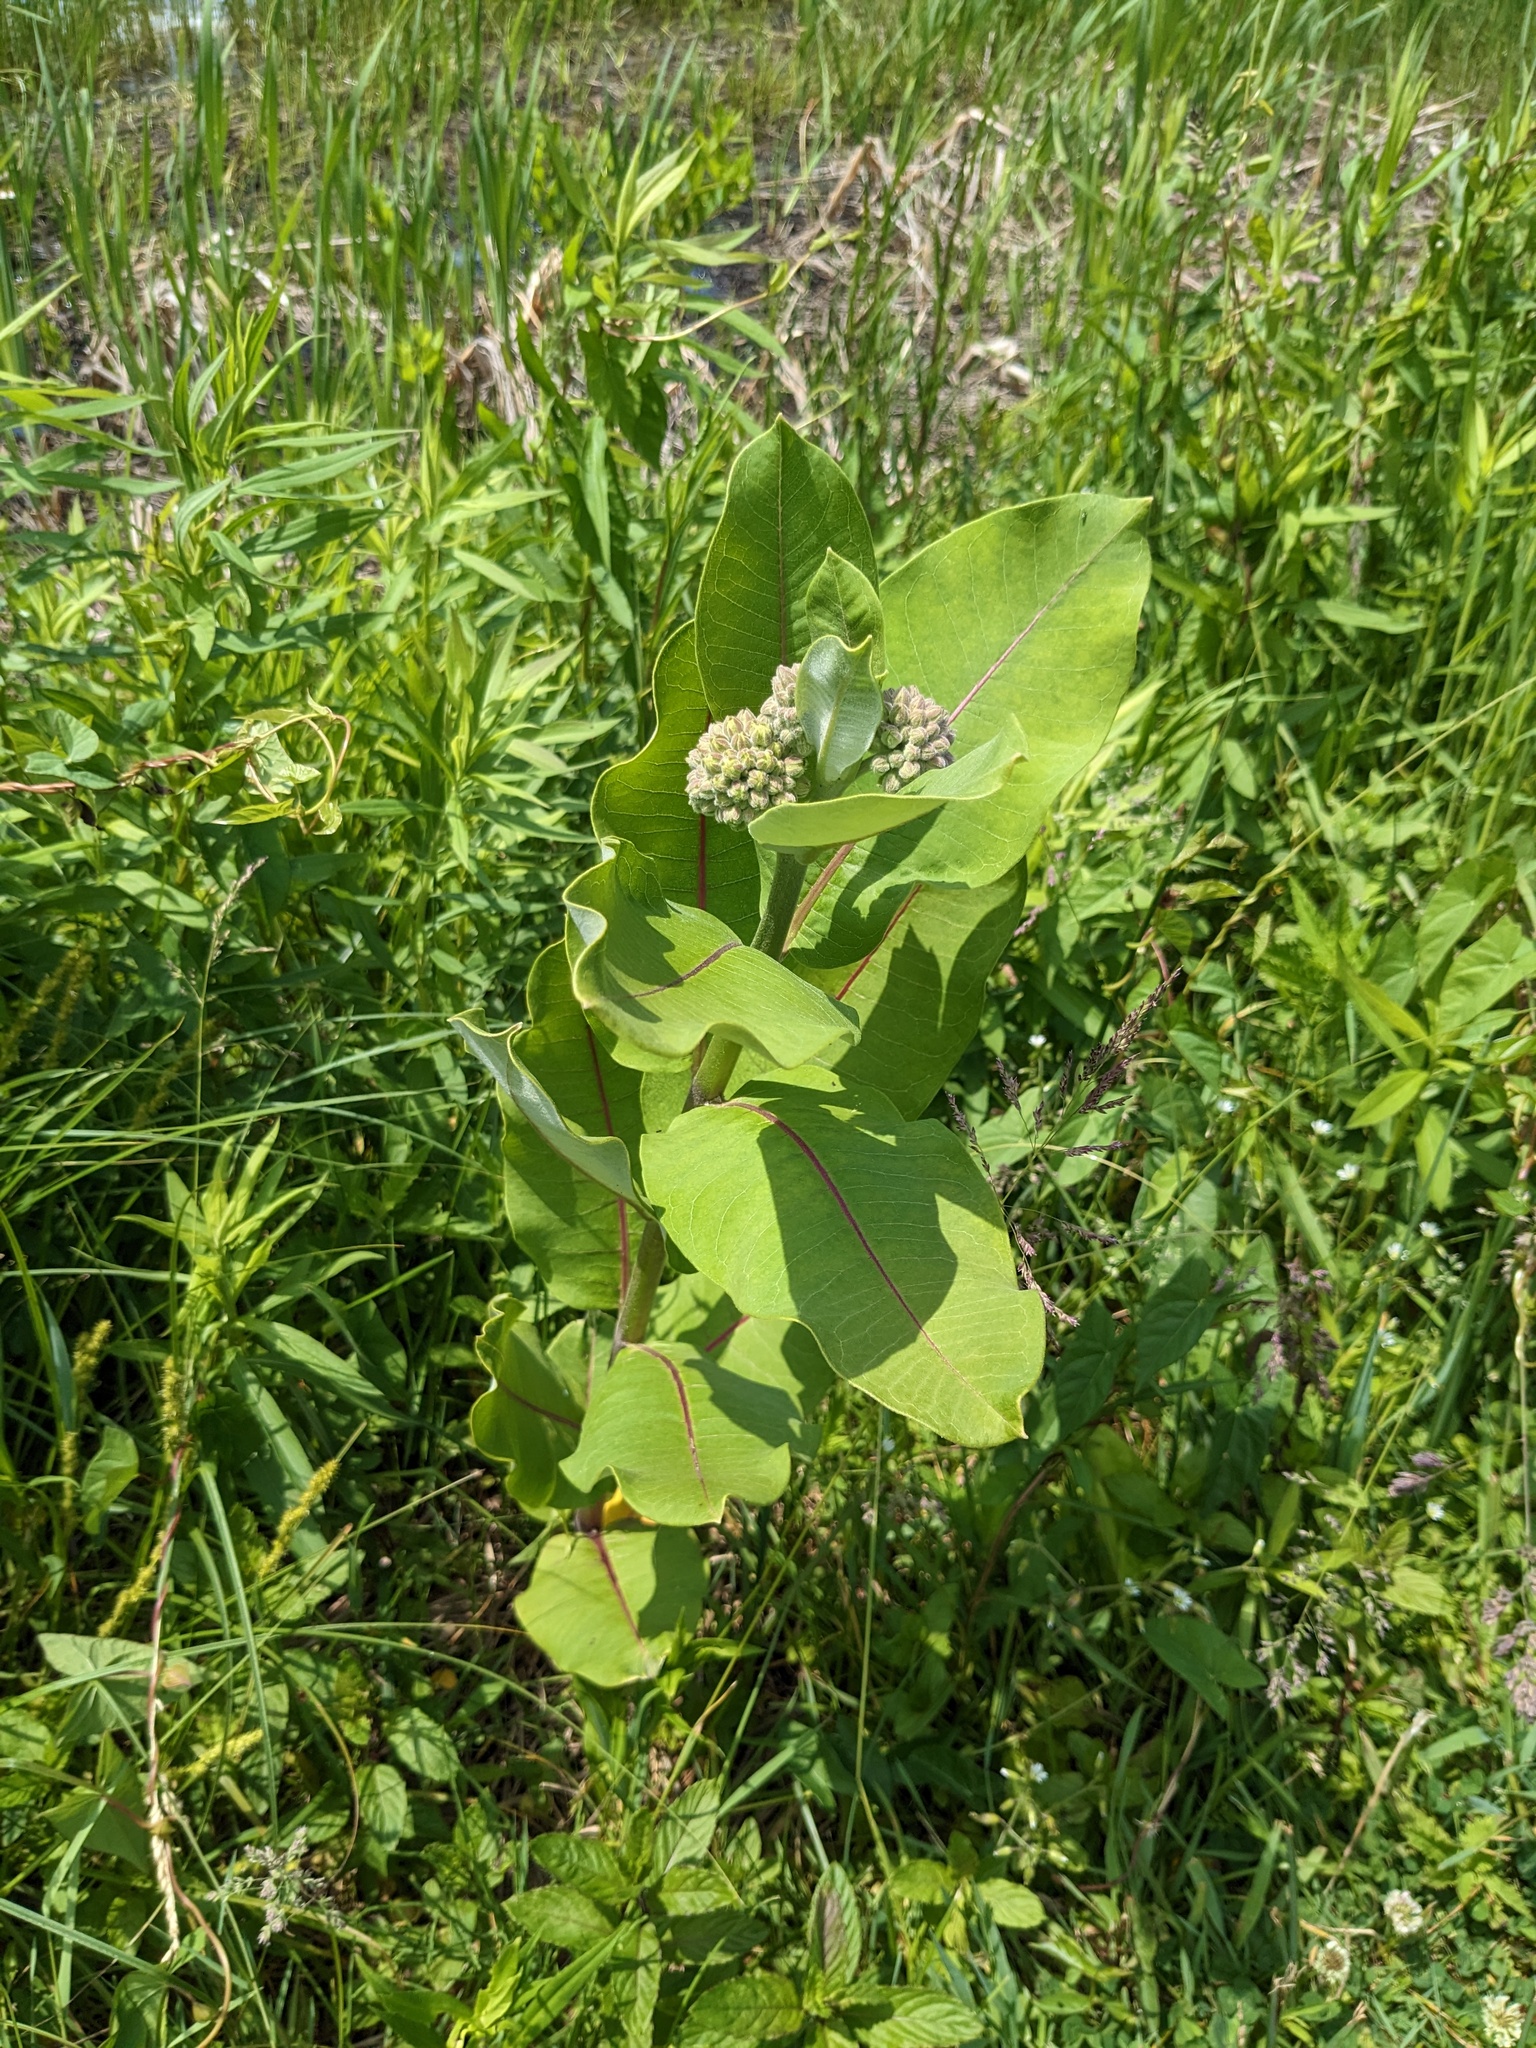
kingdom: Plantae
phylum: Tracheophyta
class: Magnoliopsida
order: Gentianales
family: Apocynaceae
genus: Asclepias
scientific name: Asclepias syriaca
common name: Common milkweed
